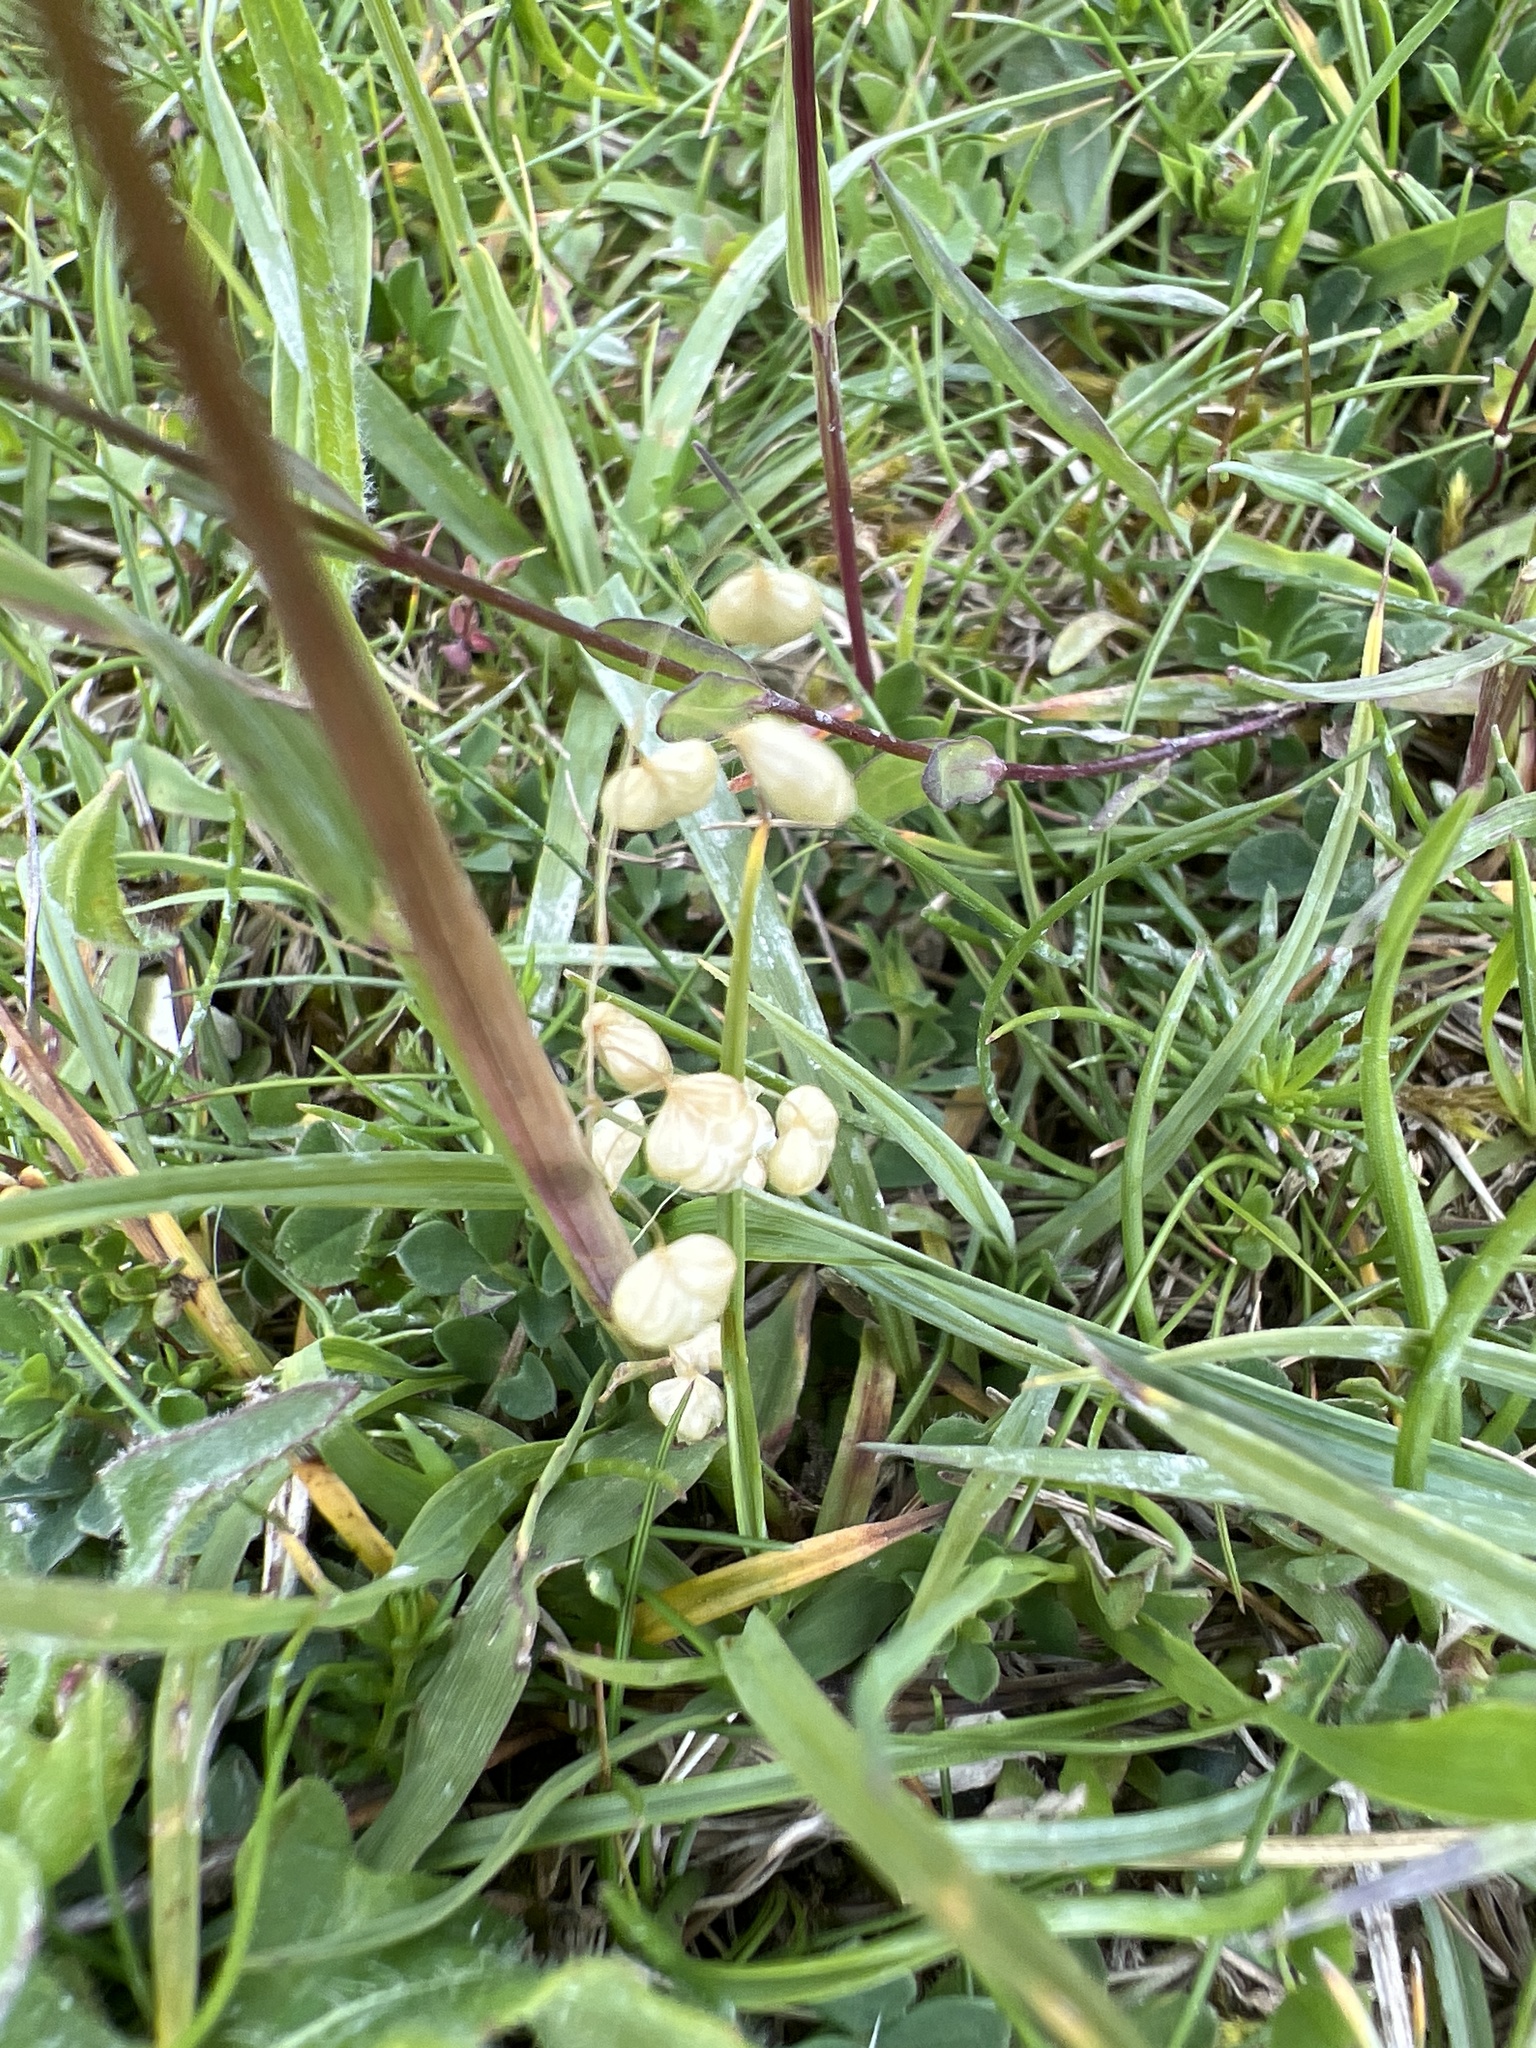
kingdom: Plantae
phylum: Tracheophyta
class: Liliopsida
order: Poales
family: Poaceae
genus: Briza
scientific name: Briza media
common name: Quaking grass
